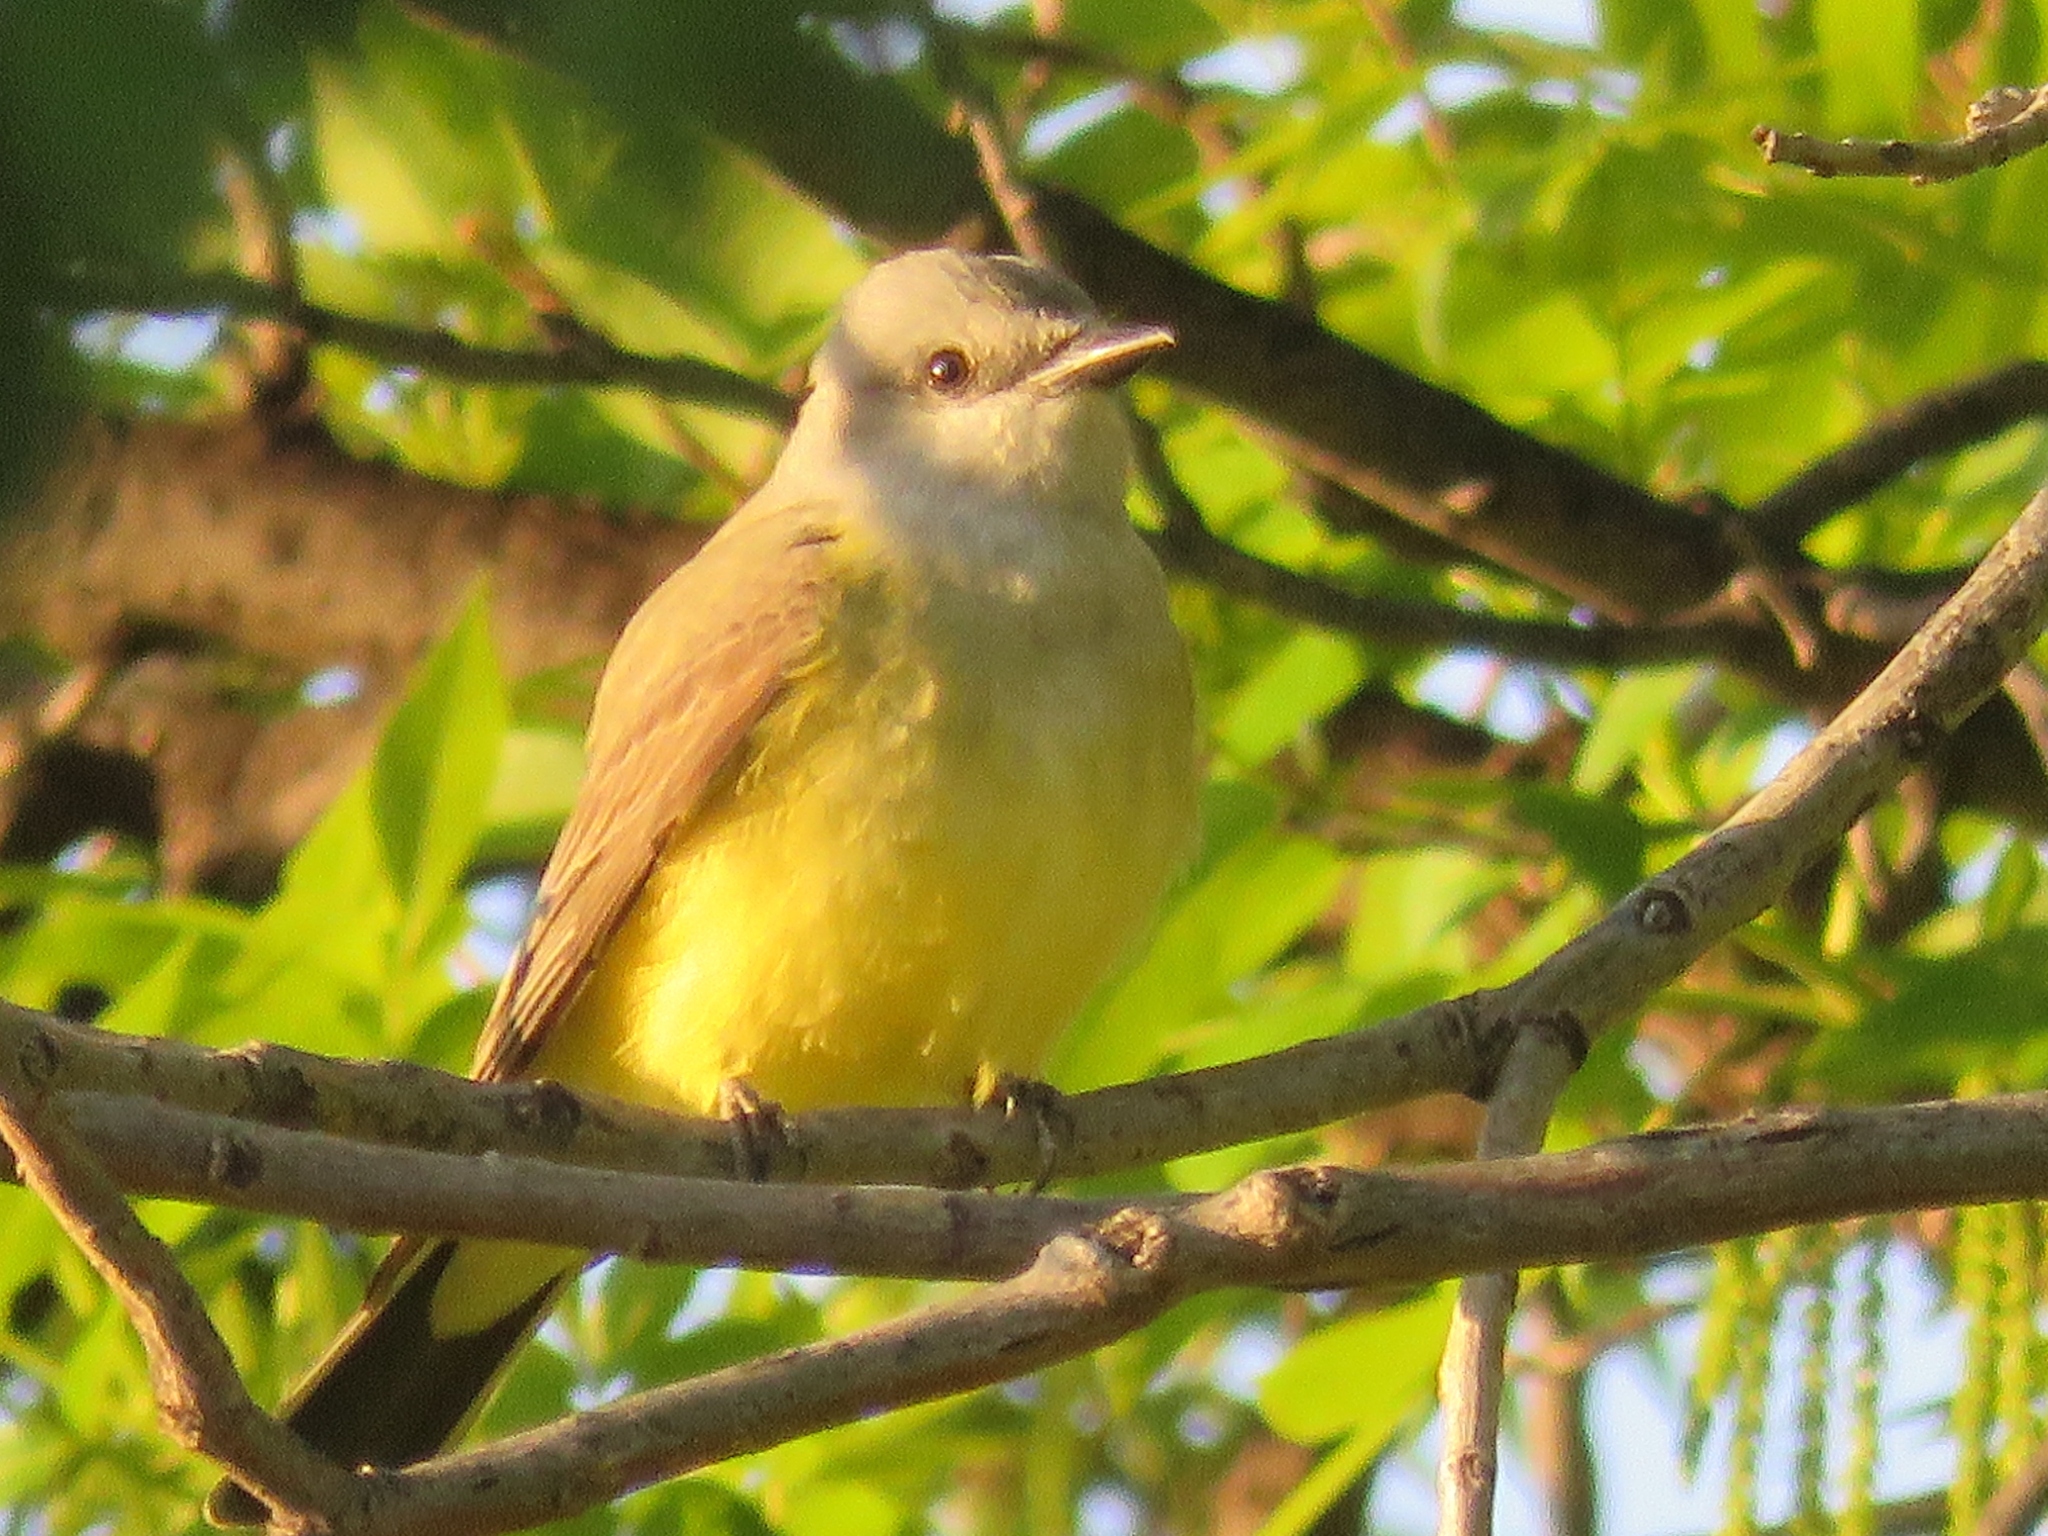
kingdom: Animalia
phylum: Chordata
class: Aves
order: Passeriformes
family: Tyrannidae
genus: Tyrannus
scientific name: Tyrannus verticalis
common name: Western kingbird
